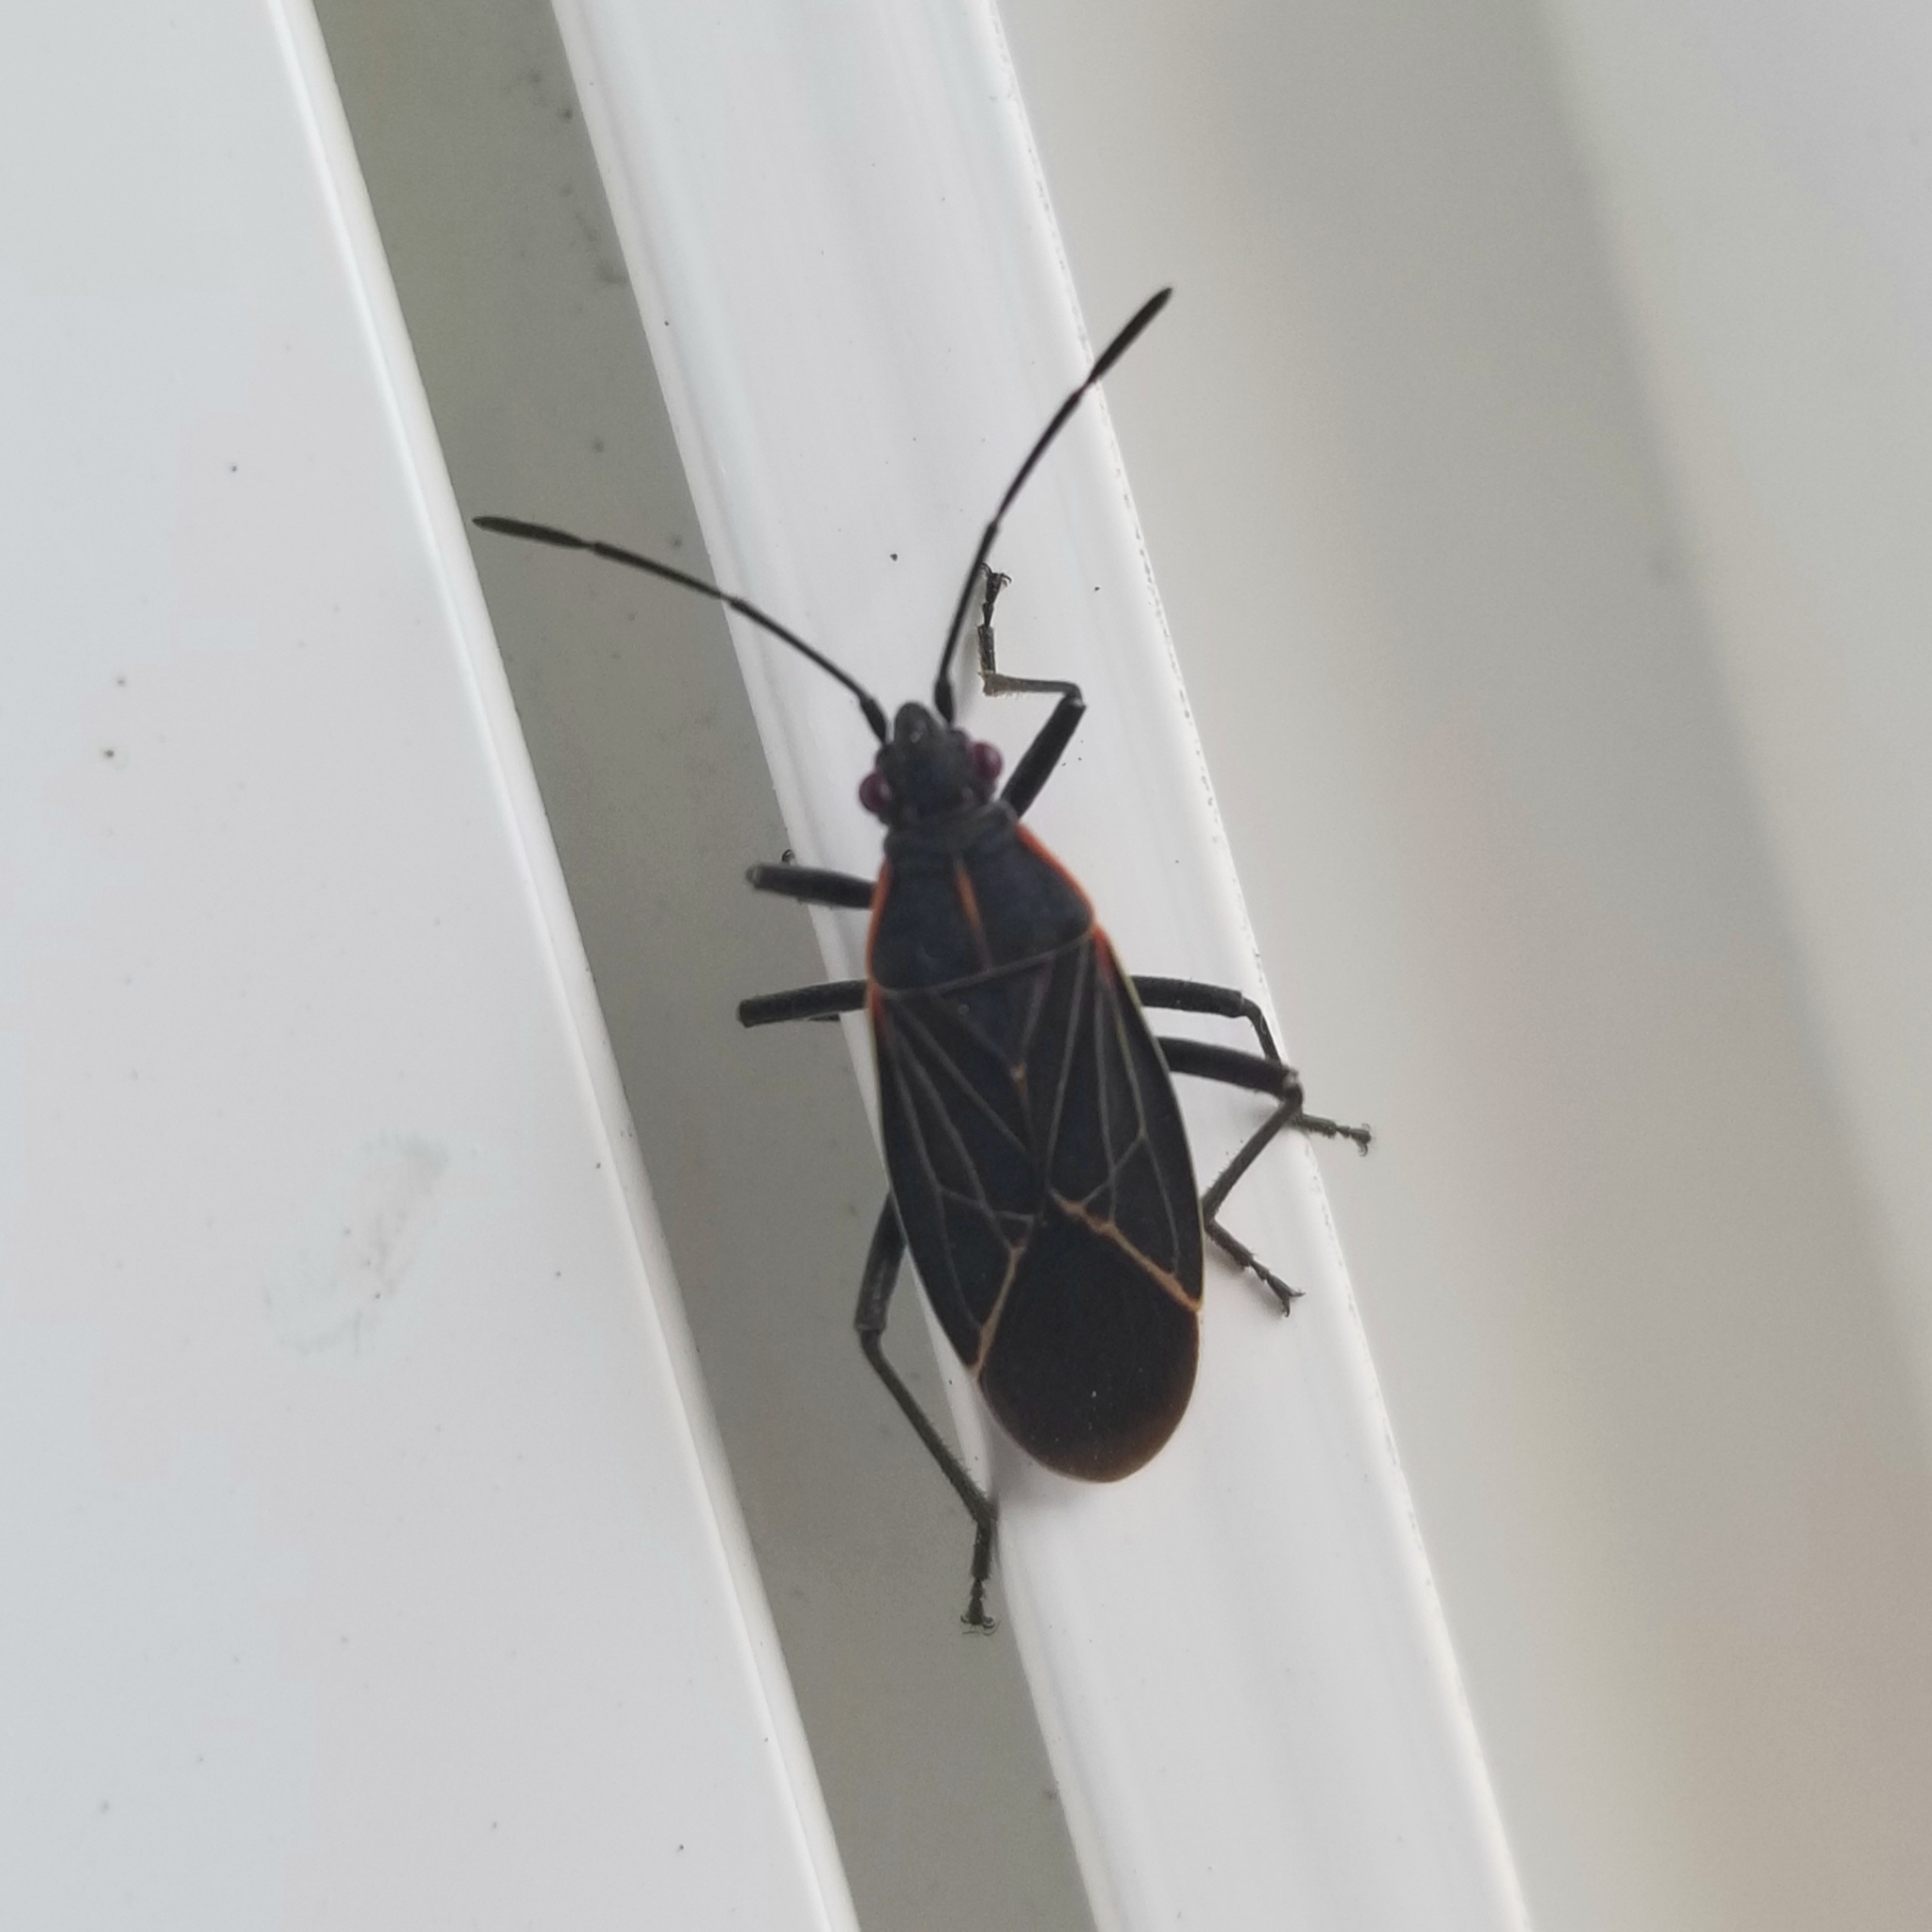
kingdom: Animalia
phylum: Arthropoda
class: Insecta
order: Hemiptera
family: Rhopalidae
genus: Boisea
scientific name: Boisea rubrolineata
